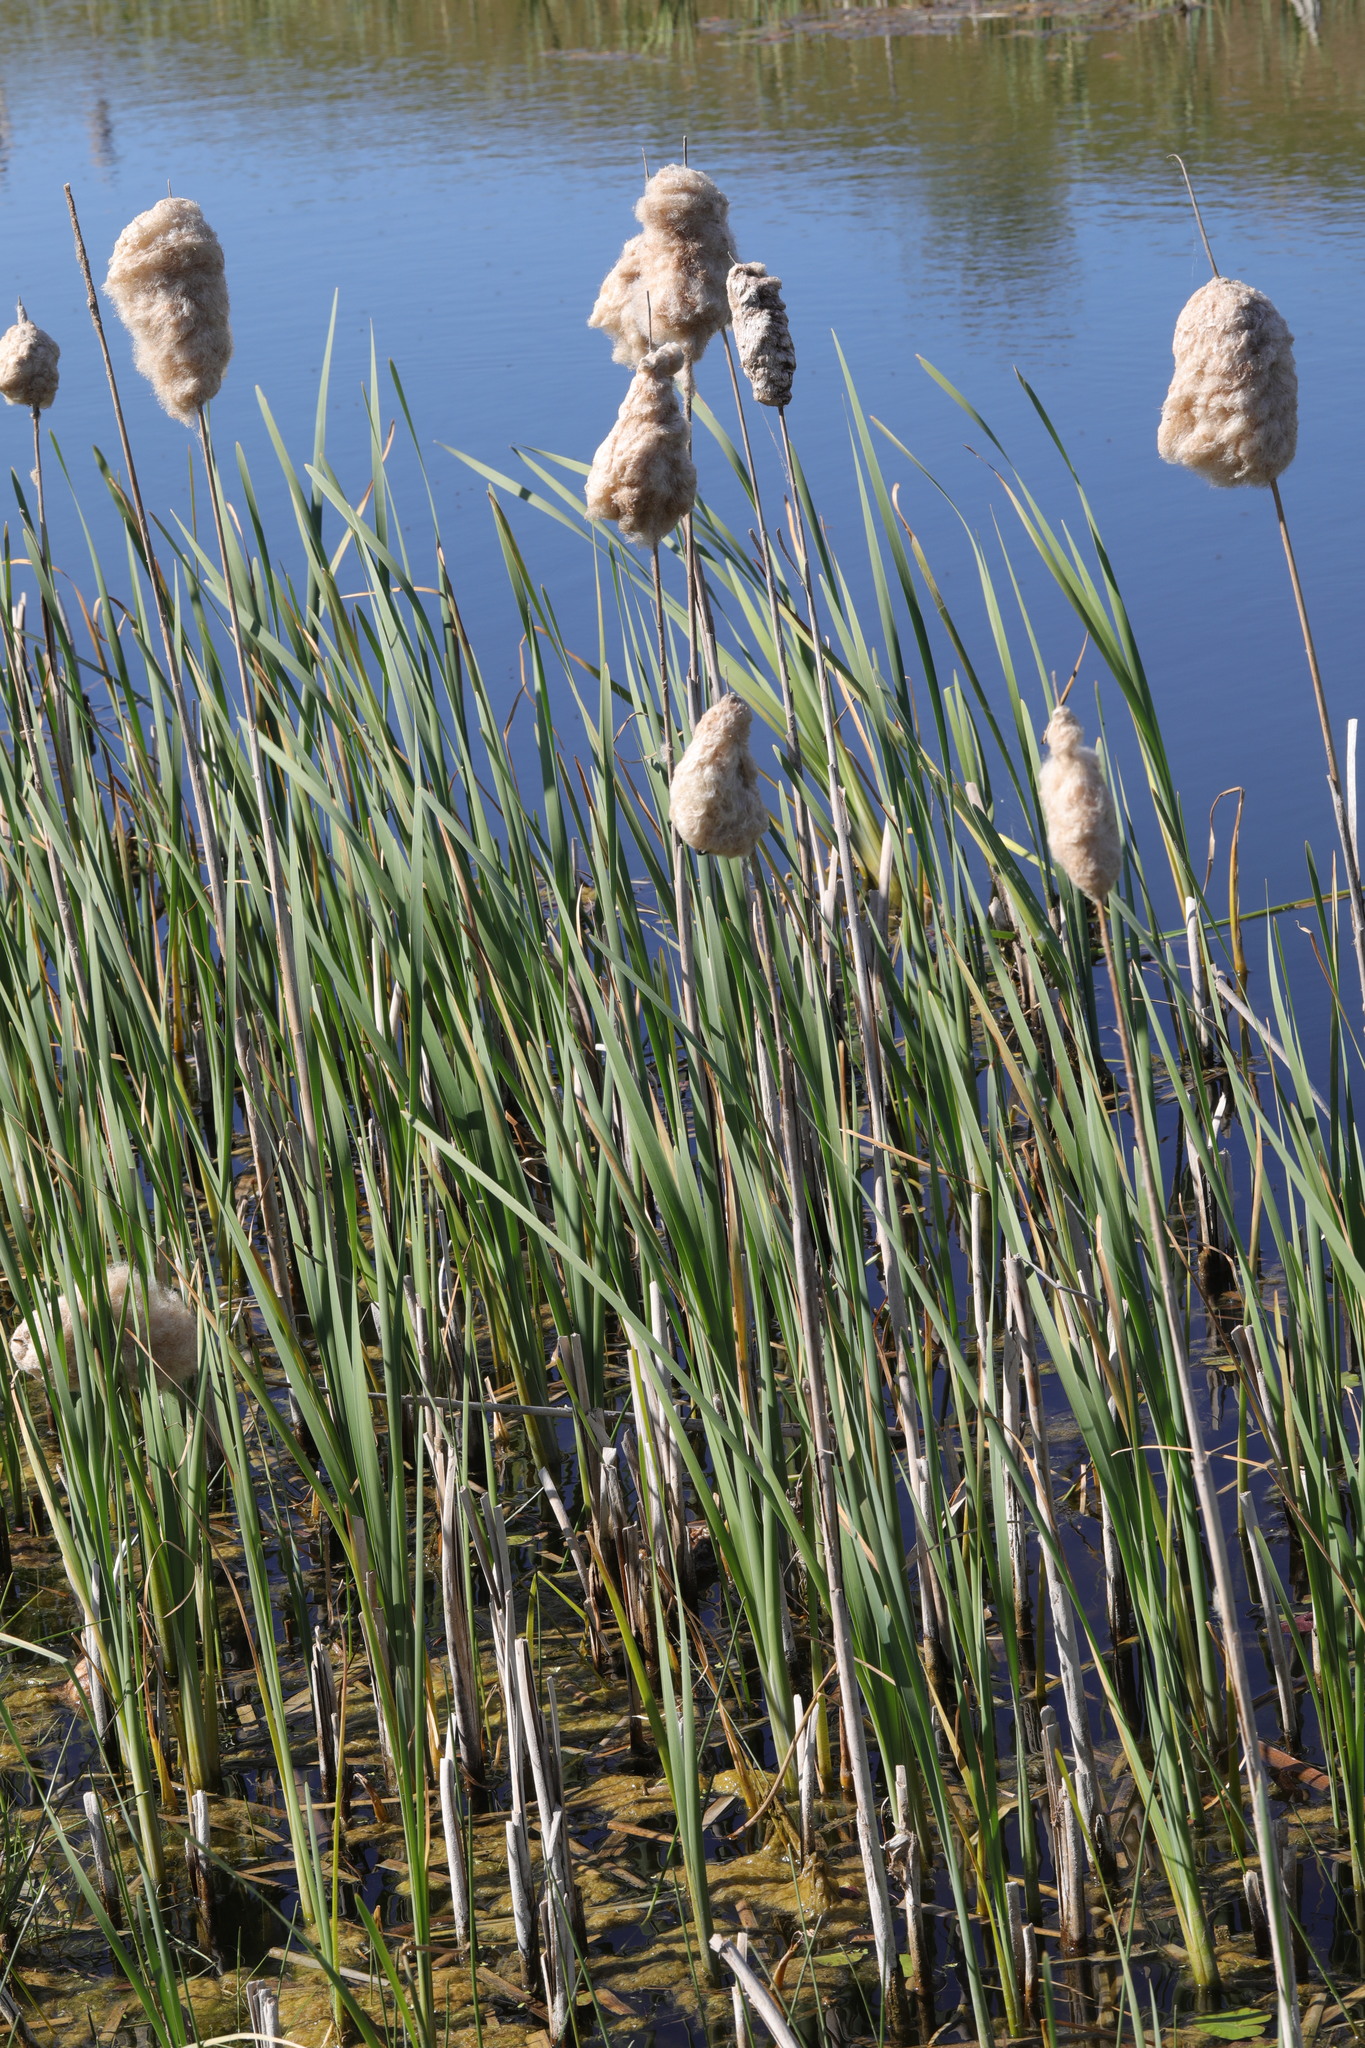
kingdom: Plantae
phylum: Tracheophyta
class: Liliopsida
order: Poales
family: Typhaceae
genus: Typha
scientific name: Typha latifolia
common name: Broadleaf cattail
